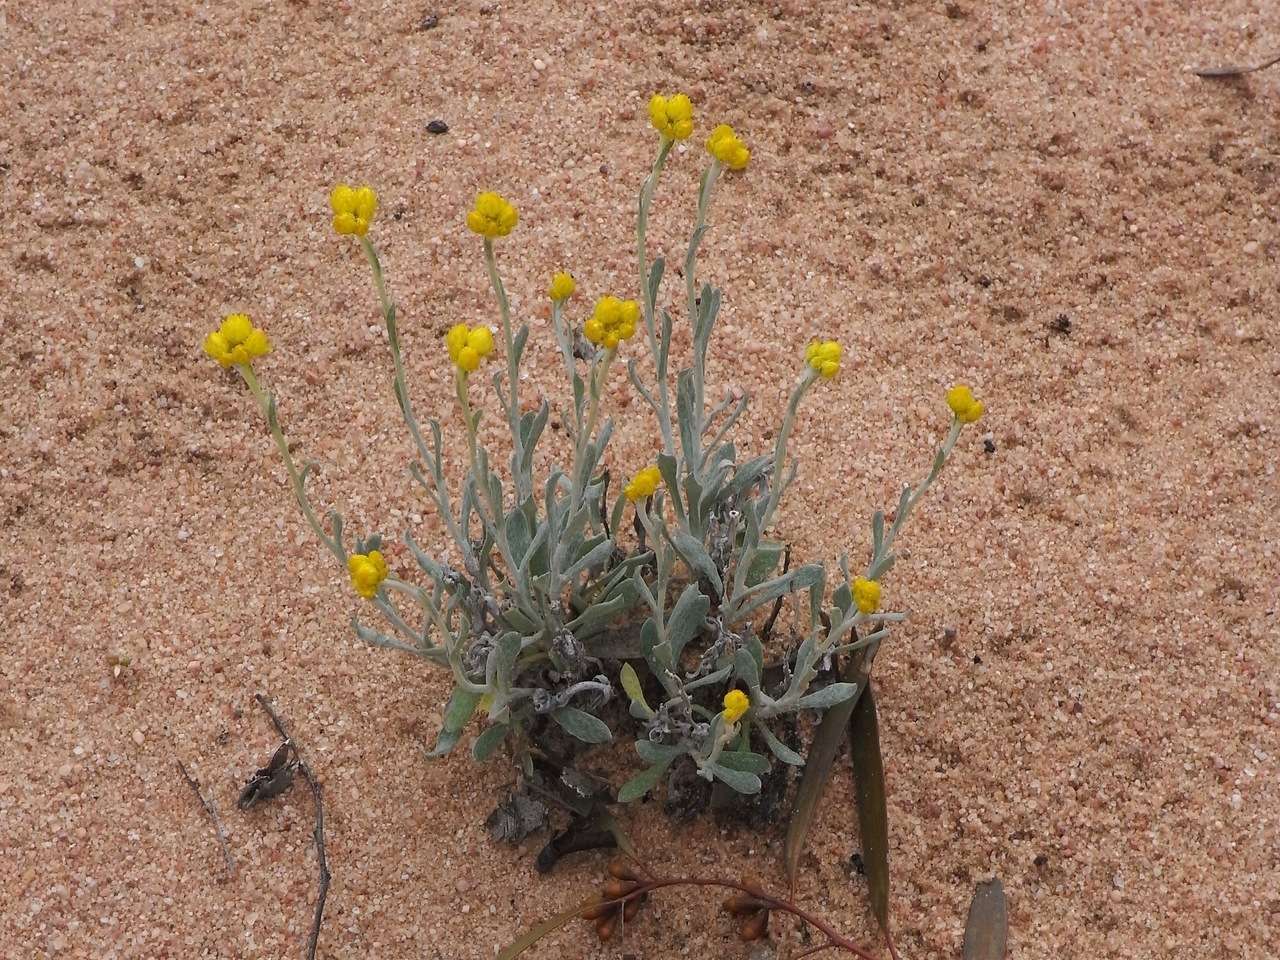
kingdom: Plantae
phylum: Tracheophyta
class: Magnoliopsida
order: Asterales
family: Asteraceae
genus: Chrysocephalum
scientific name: Chrysocephalum apiculatum
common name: Common everlasting
